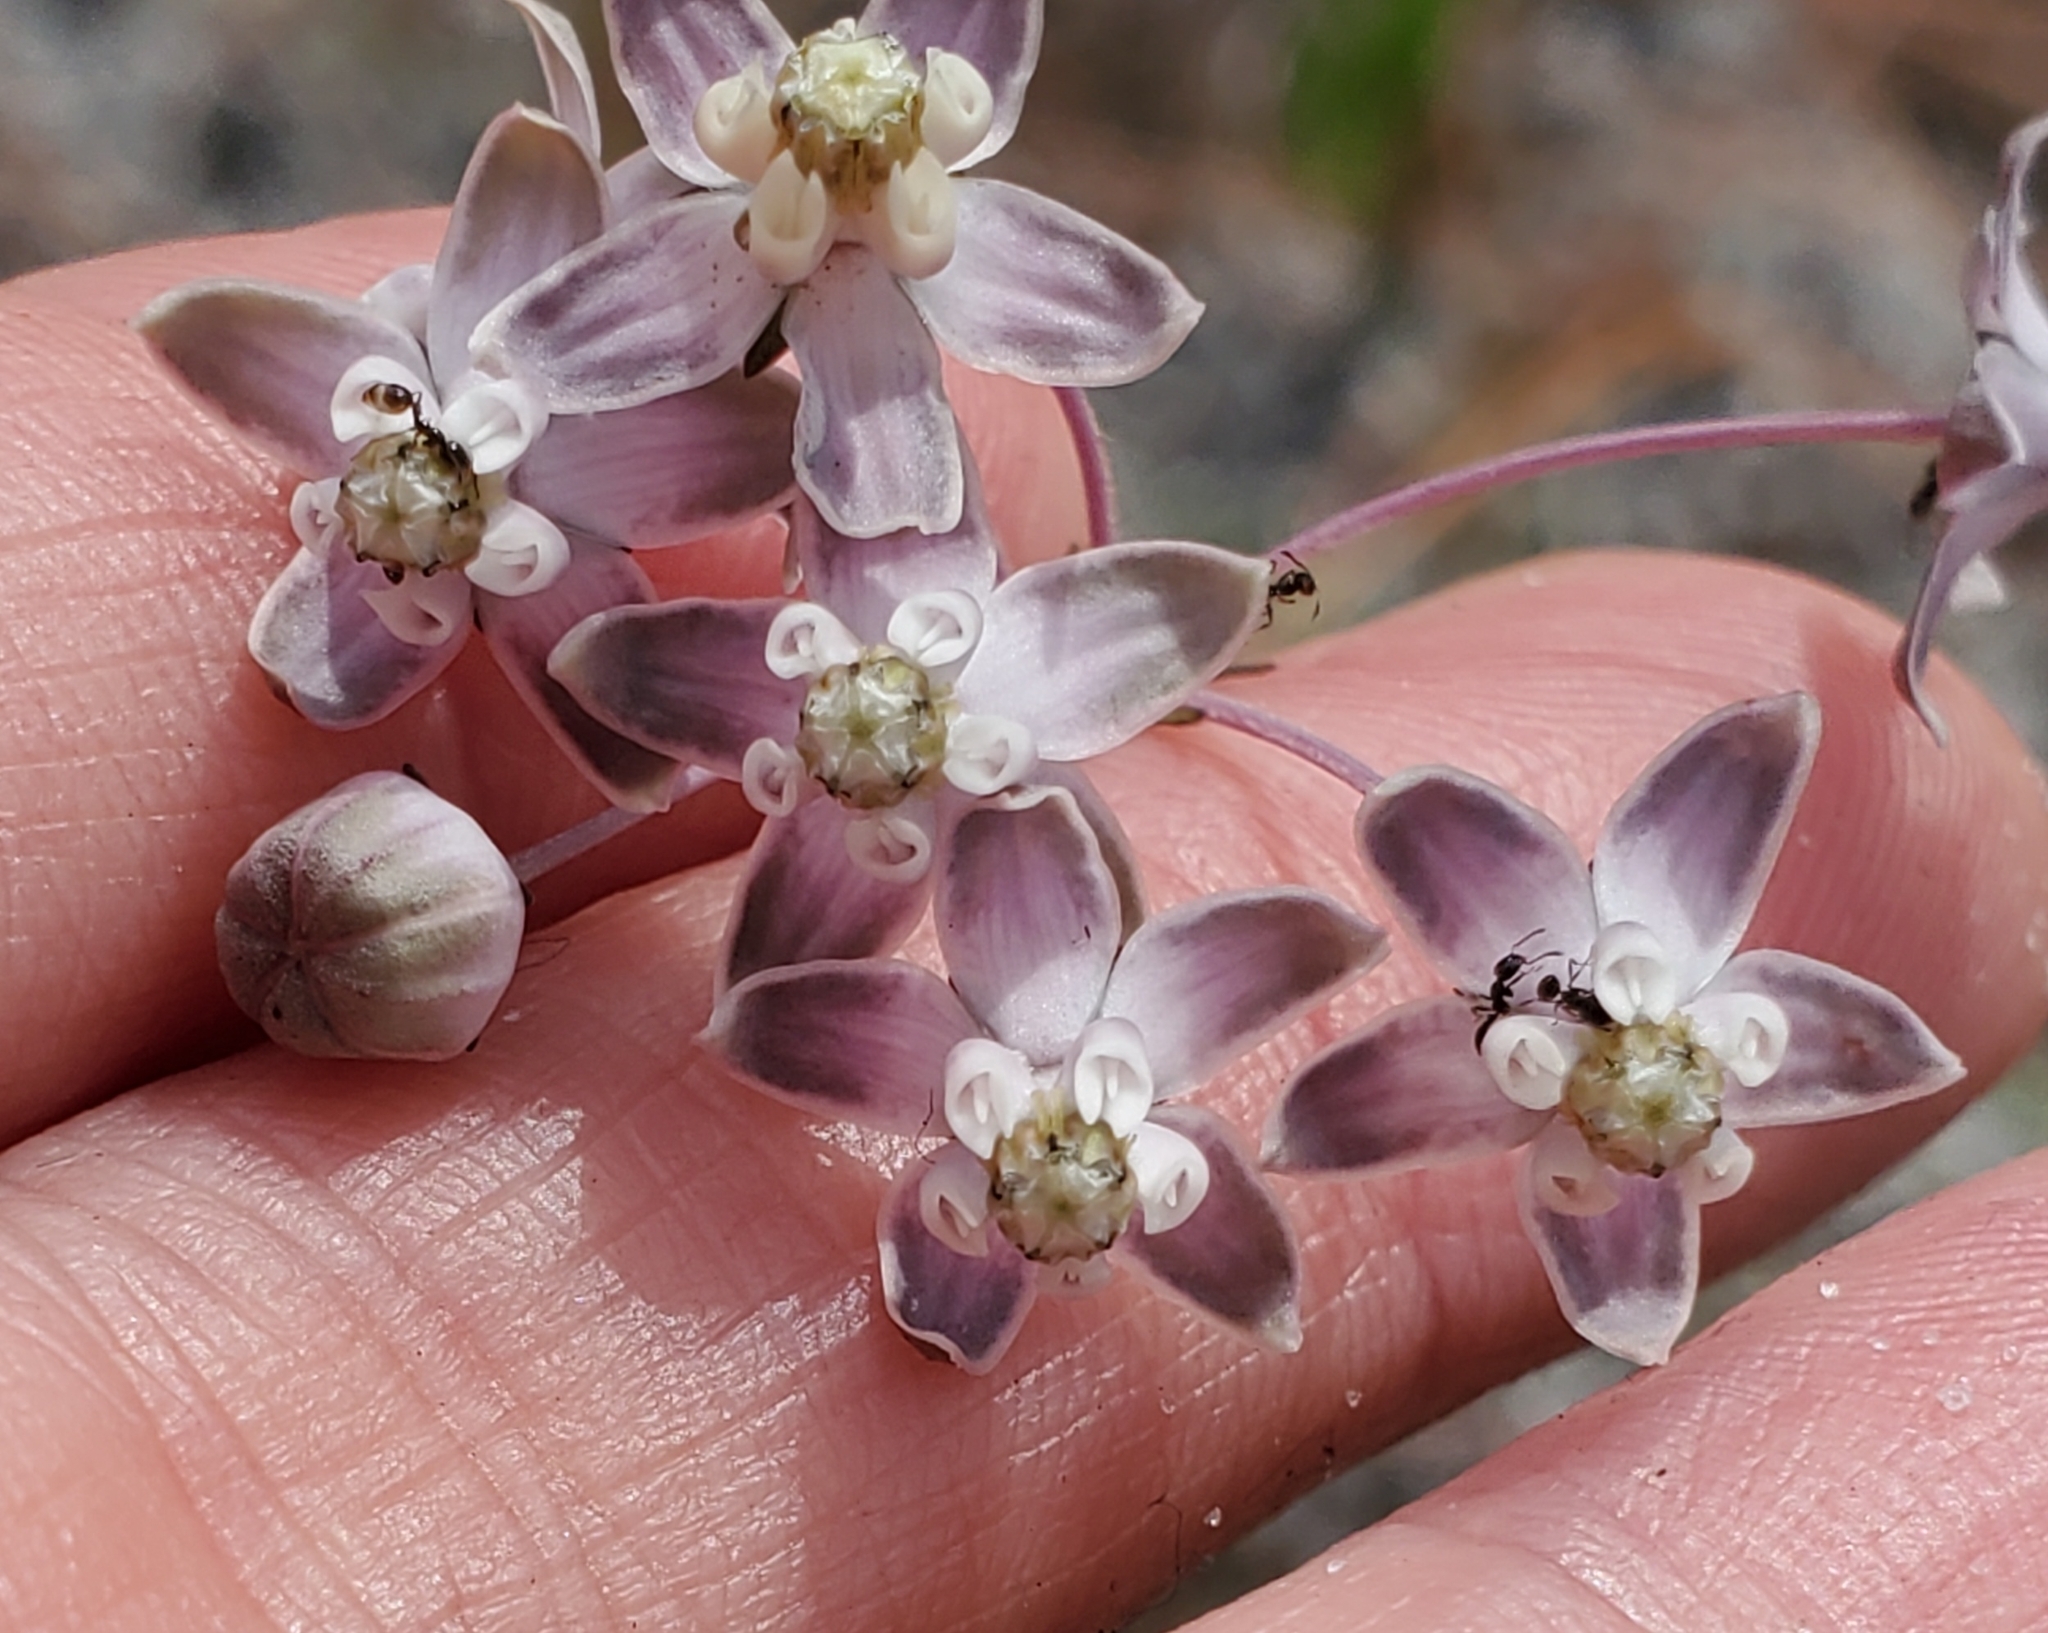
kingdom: Plantae
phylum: Tracheophyta
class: Magnoliopsida
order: Gentianales
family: Apocynaceae
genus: Asclepias
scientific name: Asclepias cinerea
